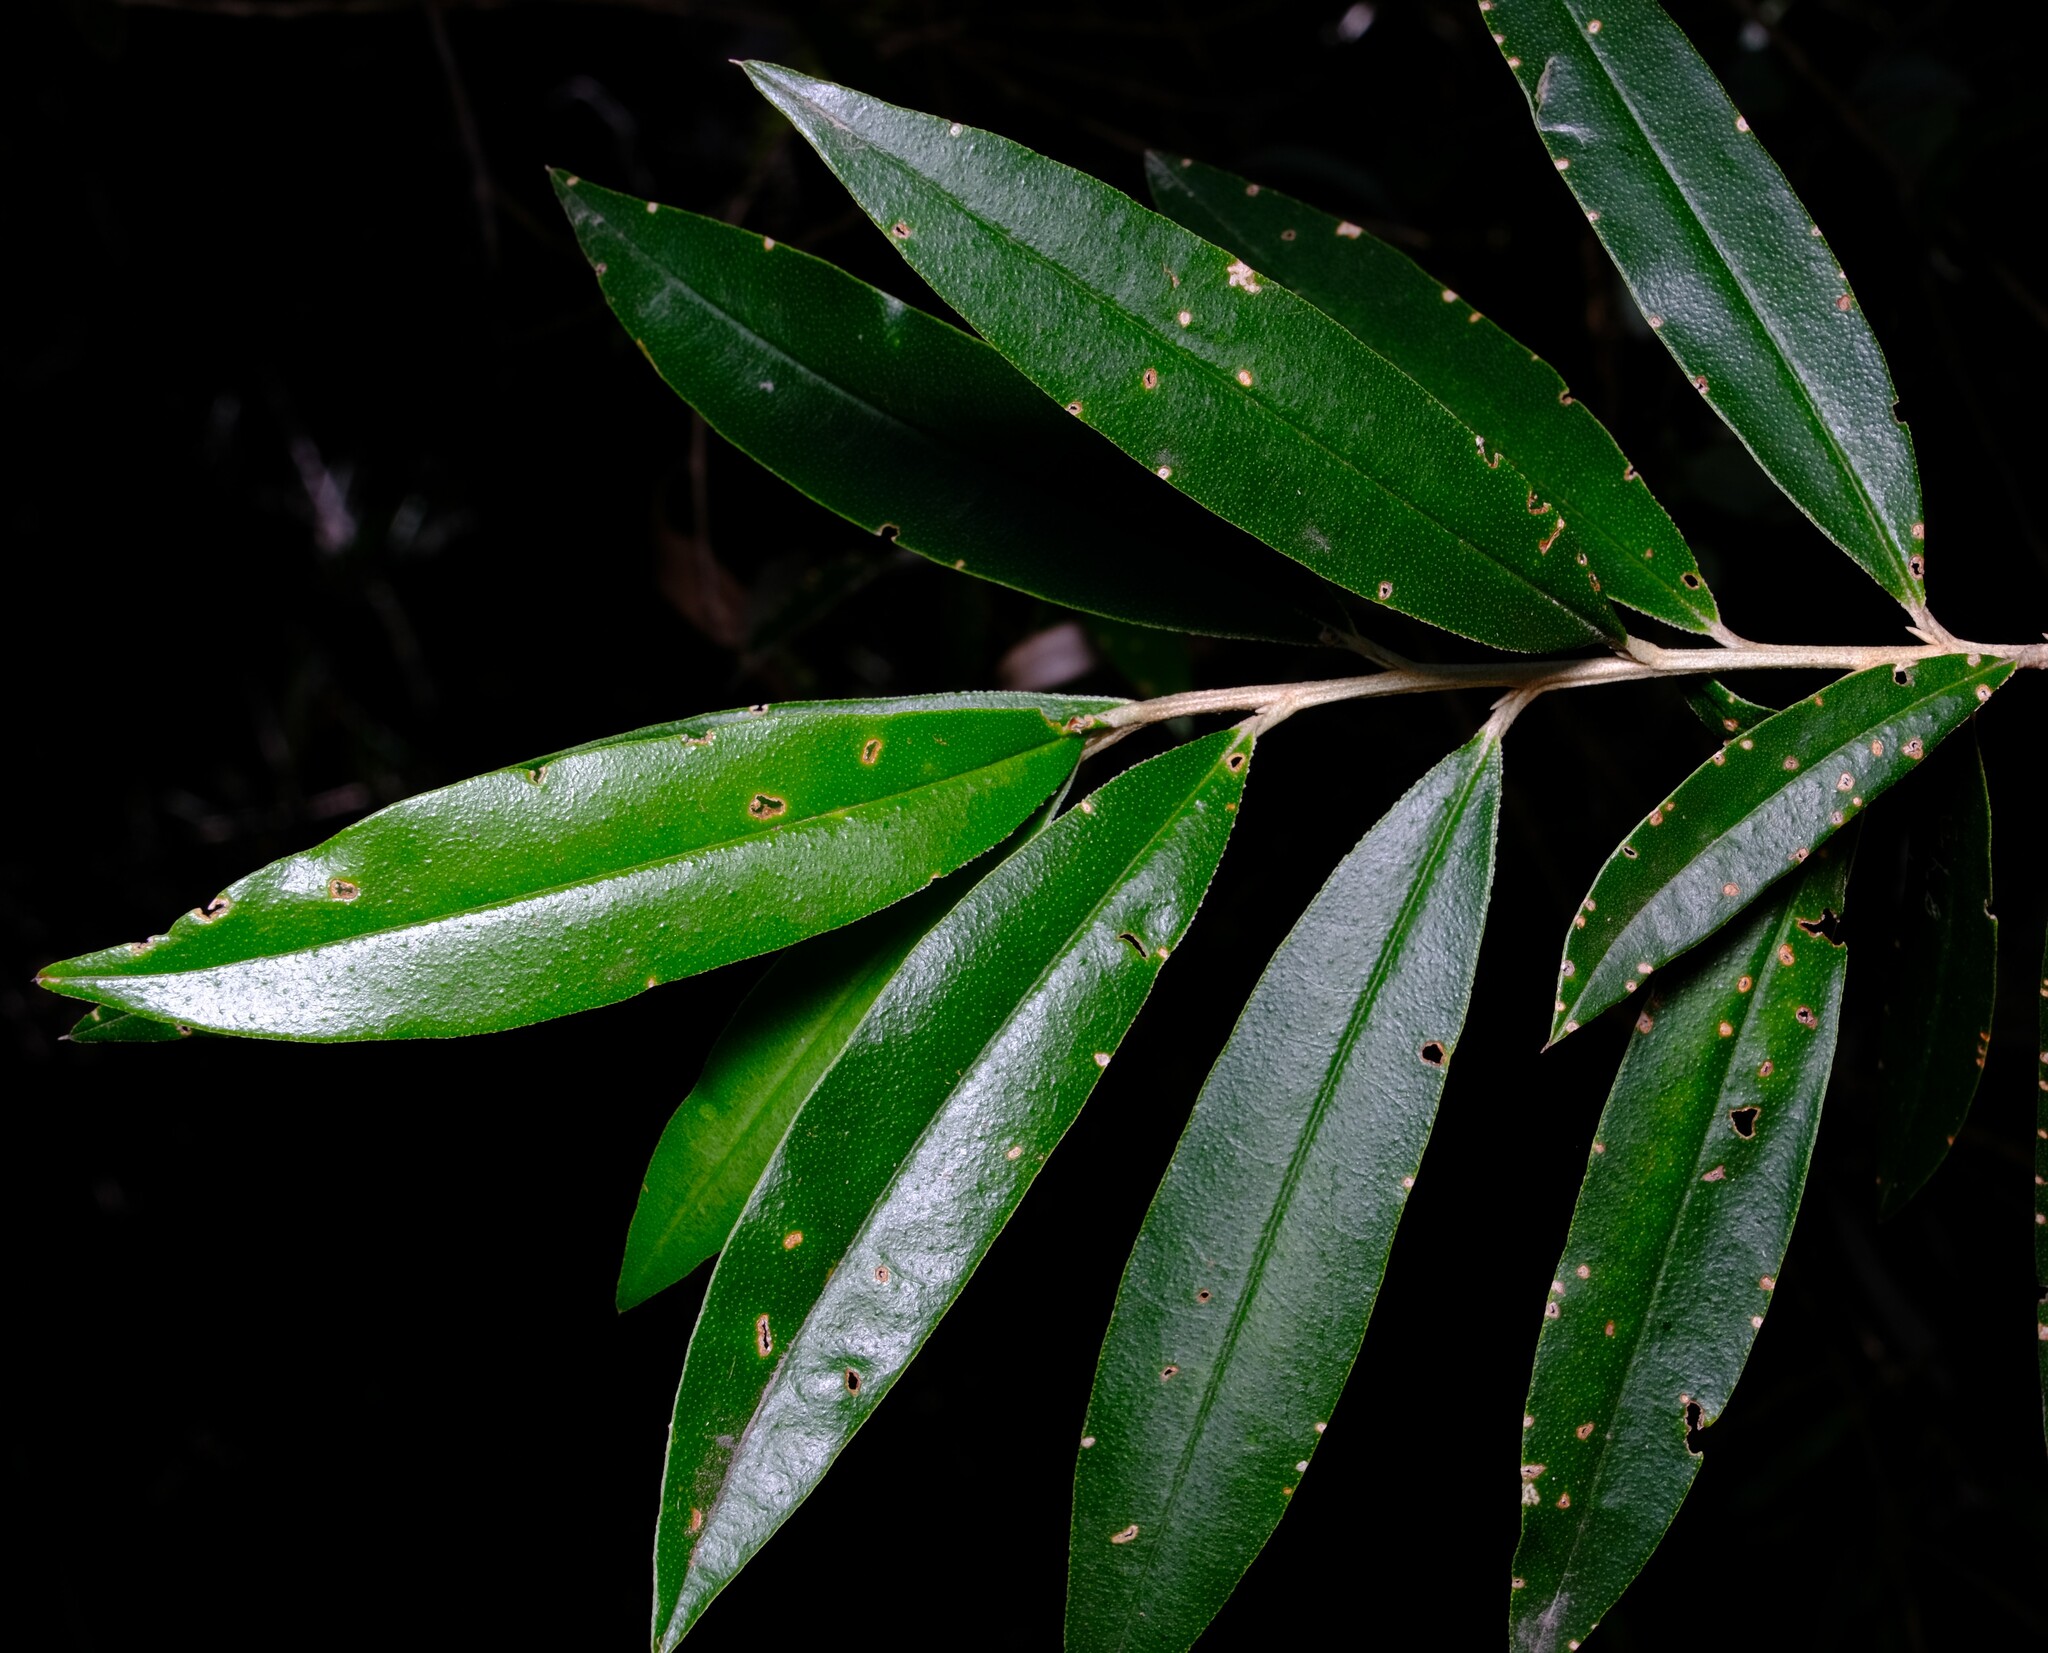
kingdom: Plantae
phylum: Tracheophyta
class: Magnoliopsida
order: Sapindales
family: Rutaceae
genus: Nematolepis
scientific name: Nematolepis squamea
